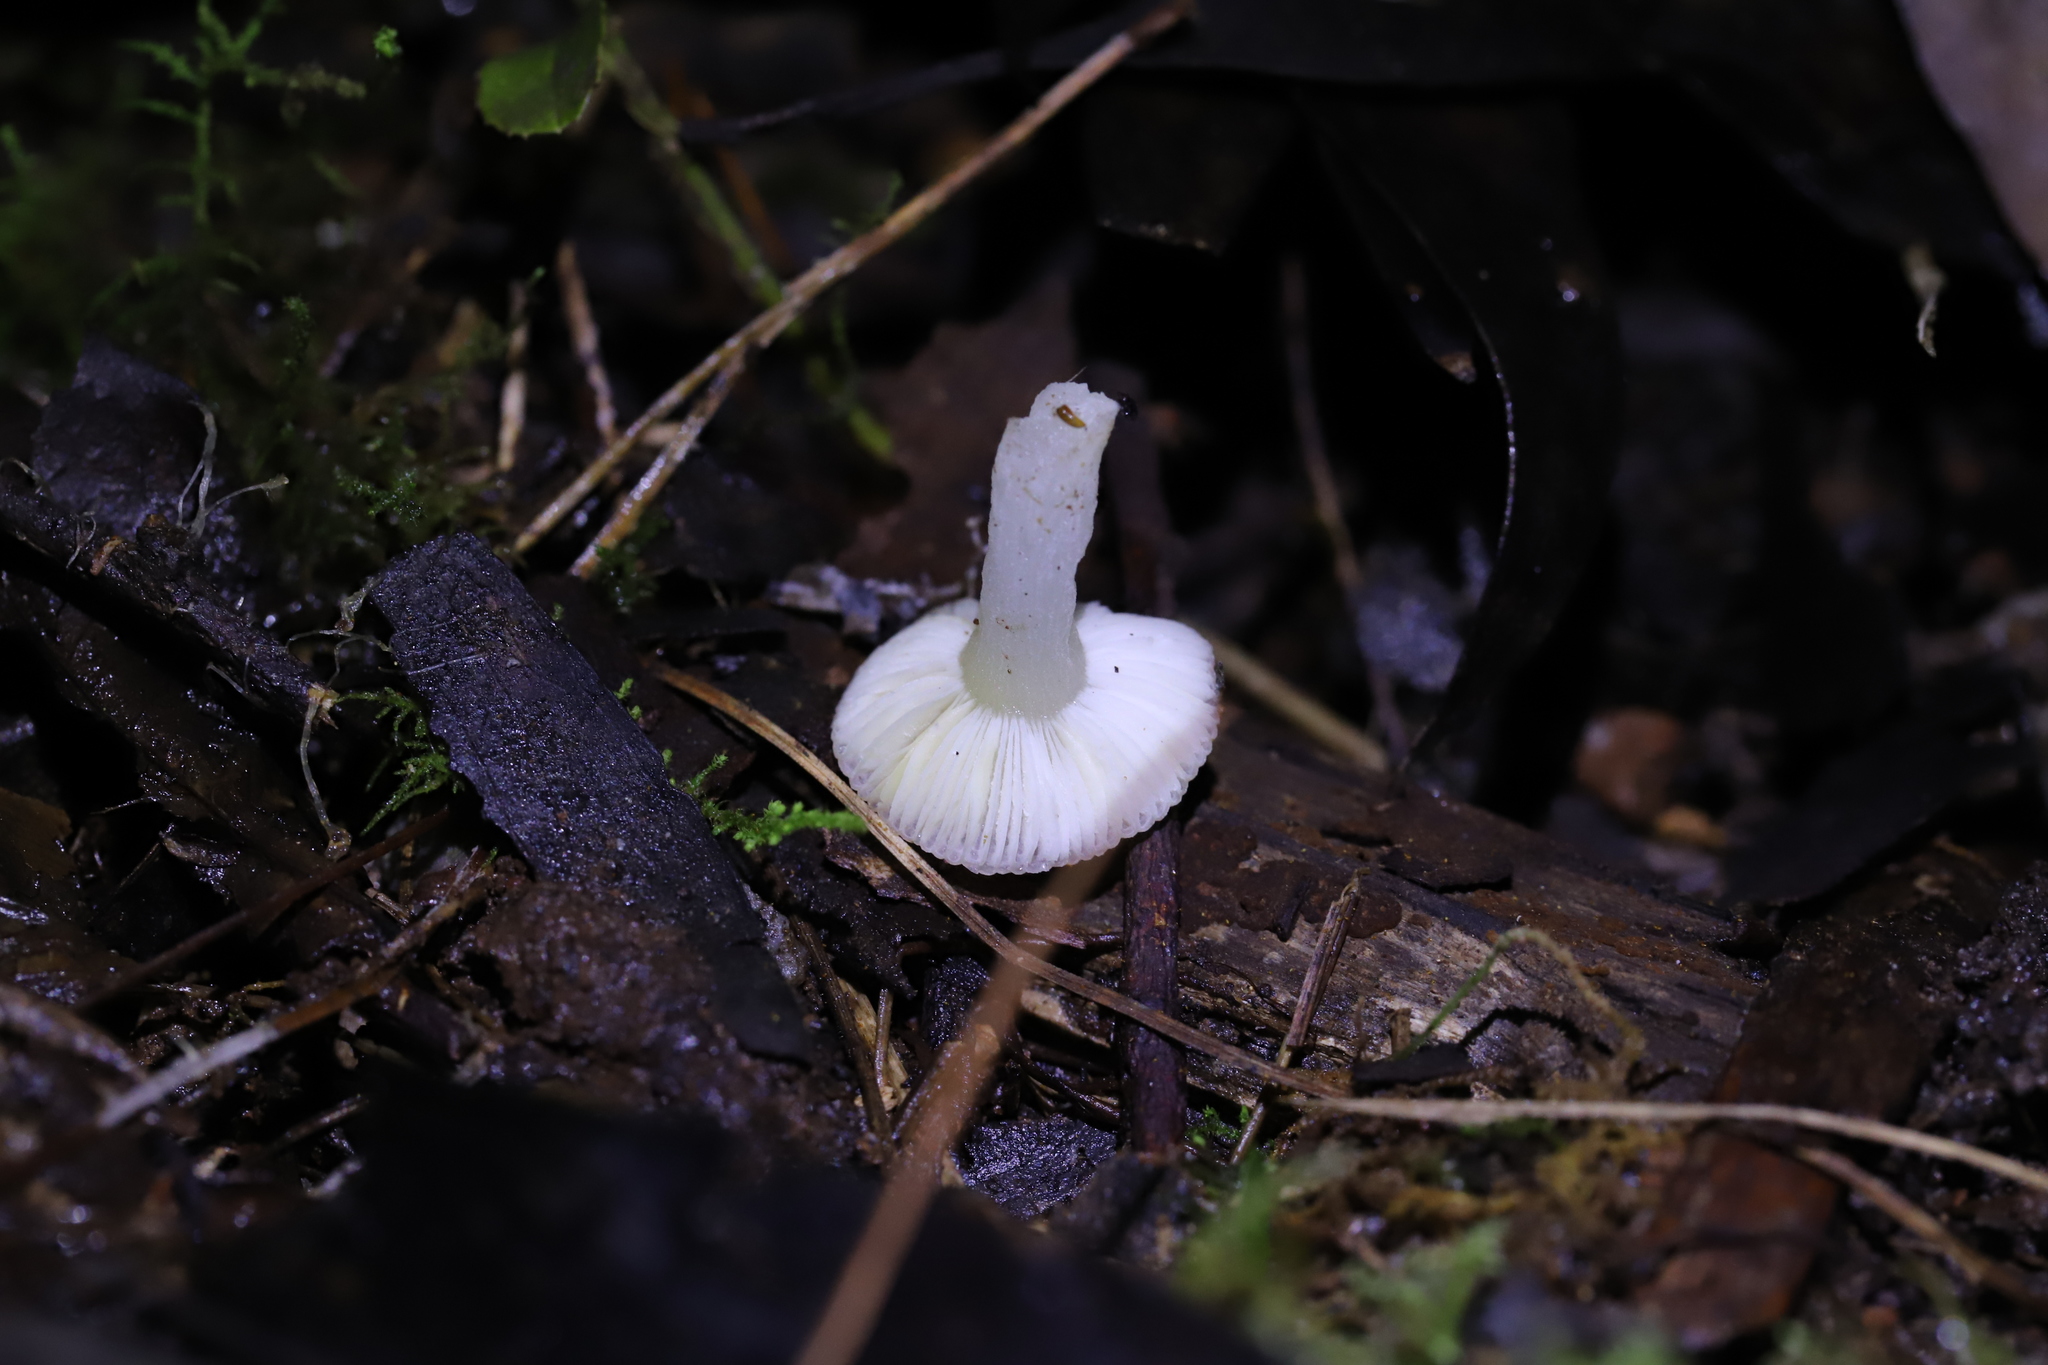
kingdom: Fungi
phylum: Basidiomycota
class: Agaricomycetes
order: Russulales
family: Russulaceae
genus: Russula
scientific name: Russula marangania
